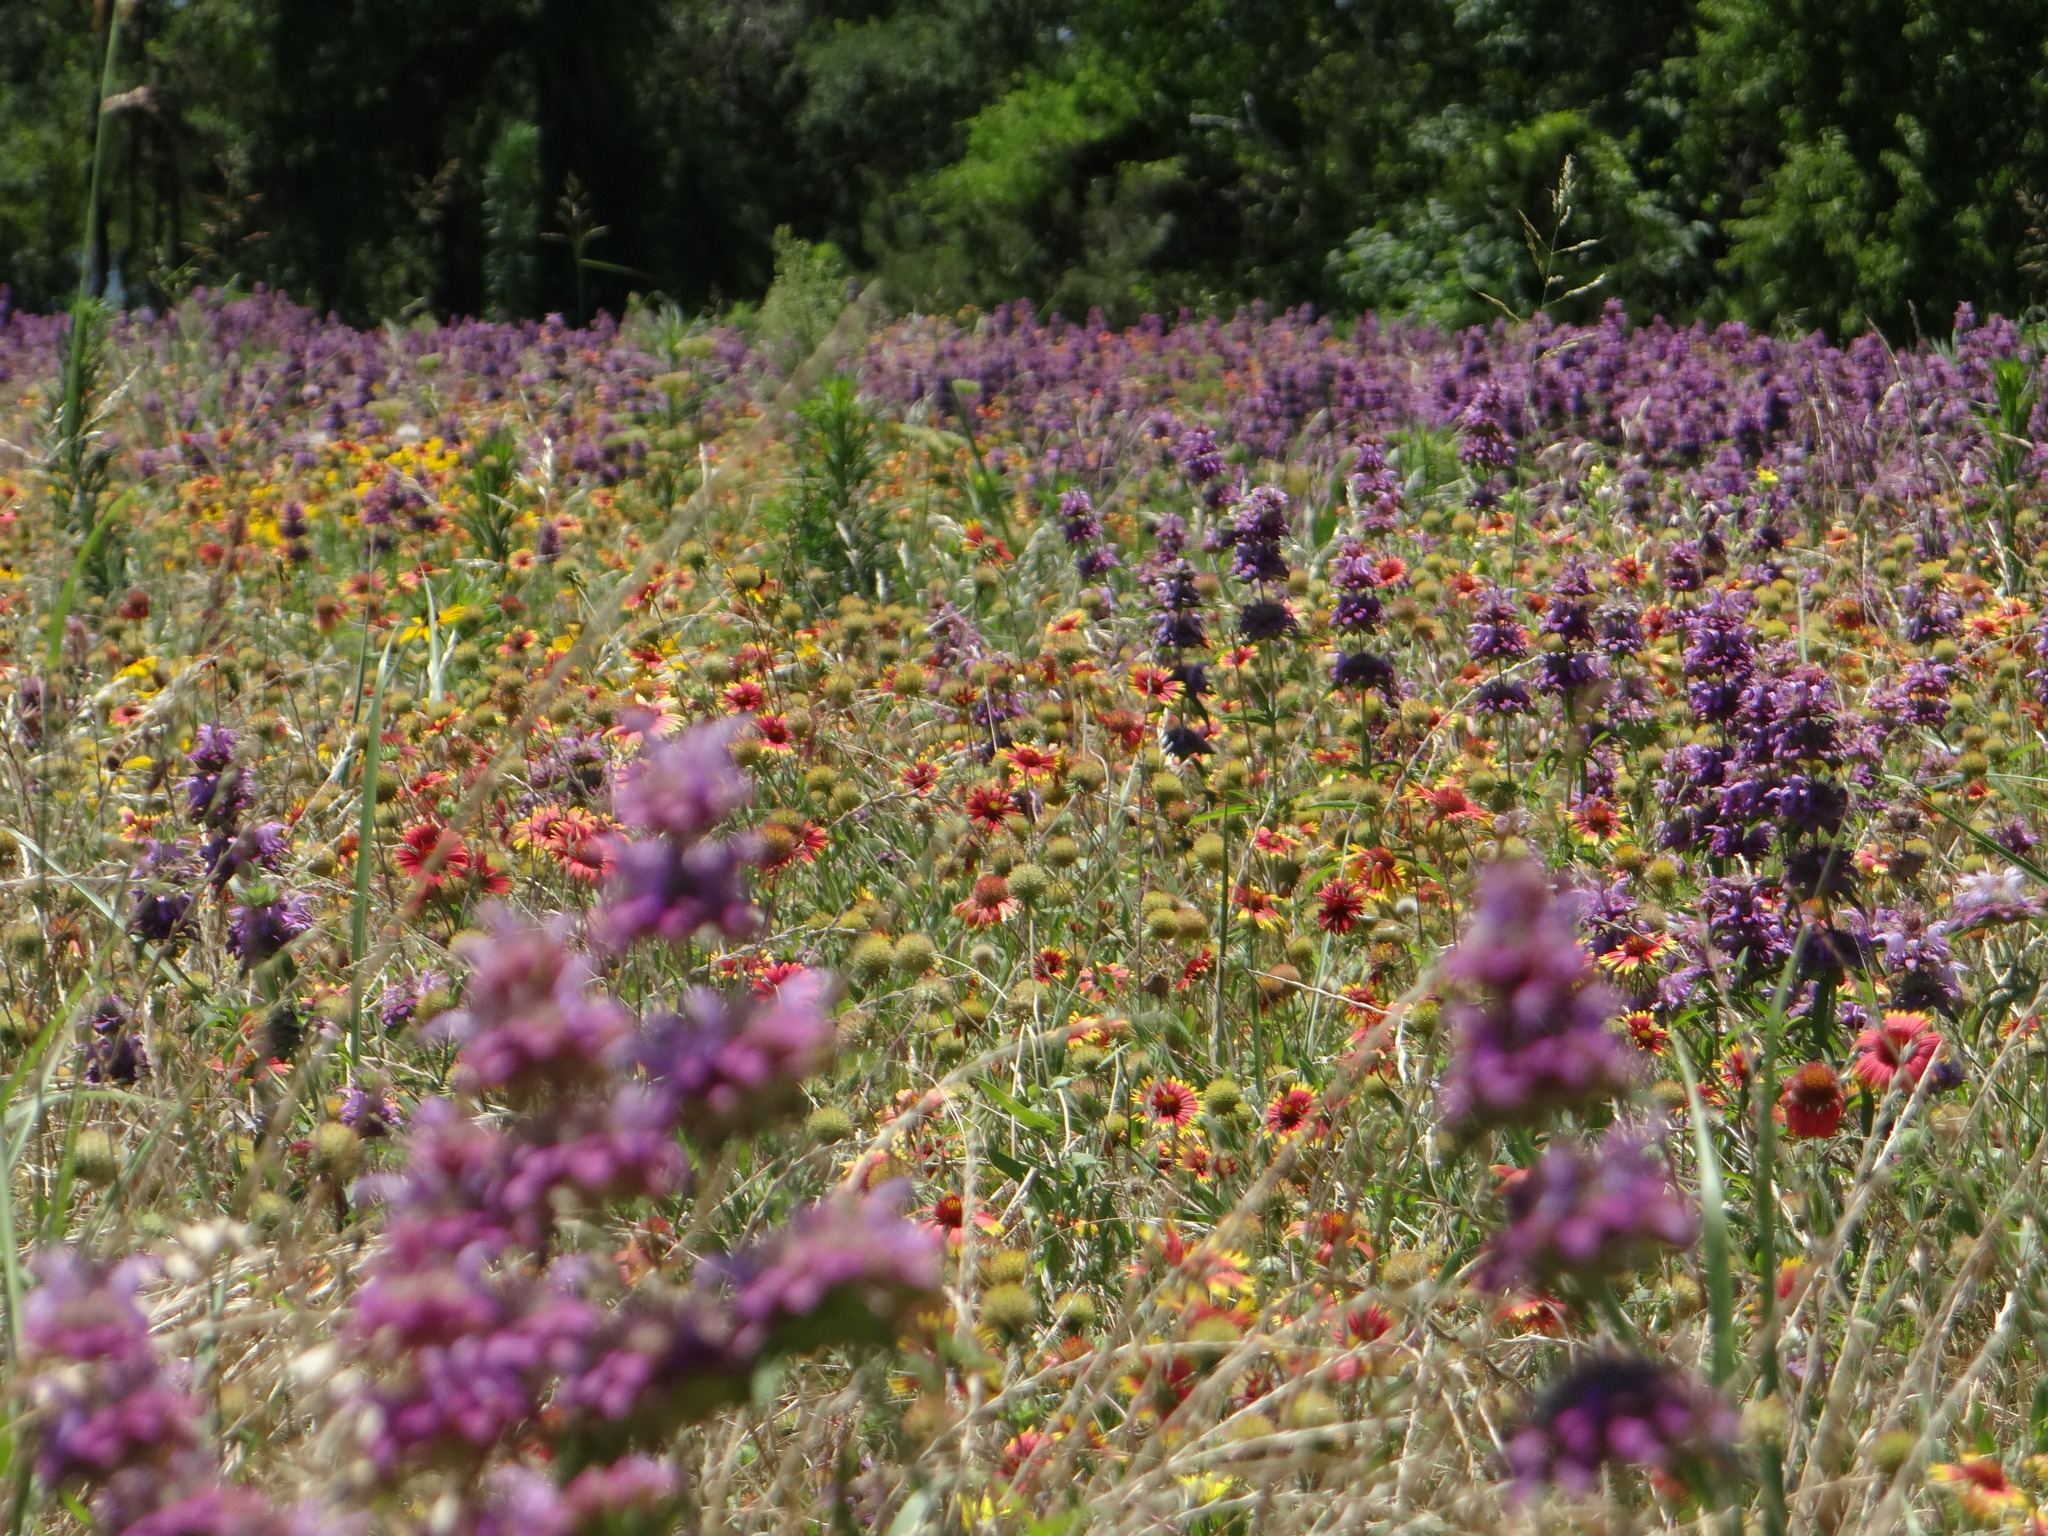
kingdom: Plantae
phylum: Tracheophyta
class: Magnoliopsida
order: Asterales
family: Asteraceae
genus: Gaillardia
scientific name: Gaillardia pulchella
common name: Firewheel
